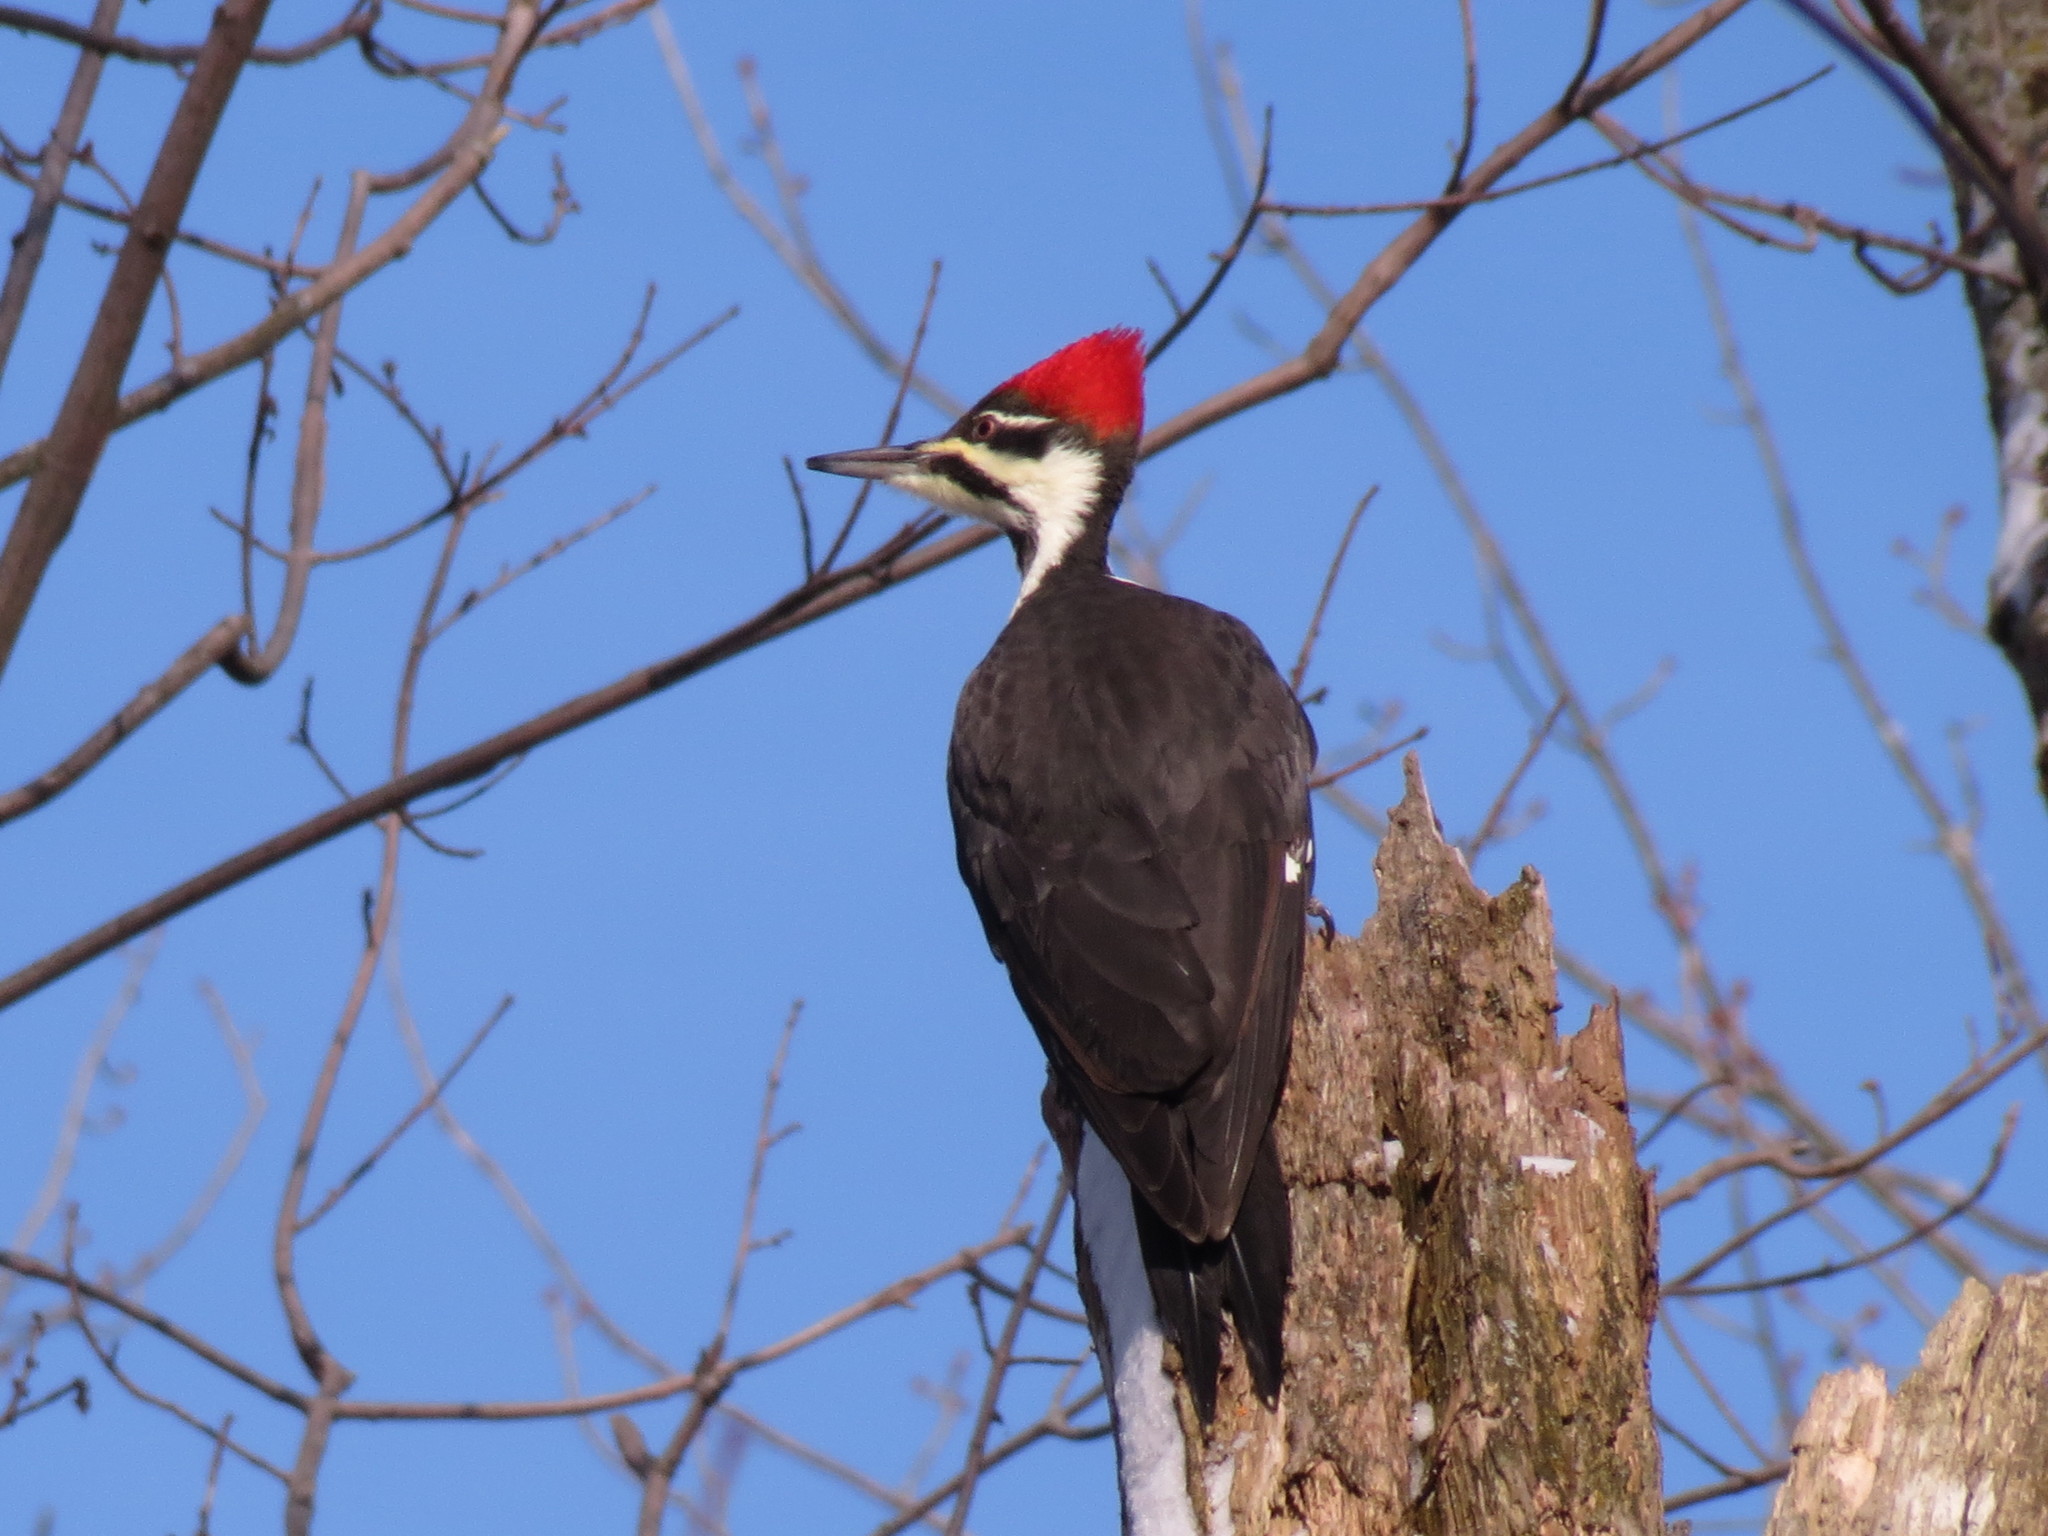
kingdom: Animalia
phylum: Chordata
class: Aves
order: Piciformes
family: Picidae
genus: Dryocopus
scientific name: Dryocopus pileatus
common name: Pileated woodpecker
